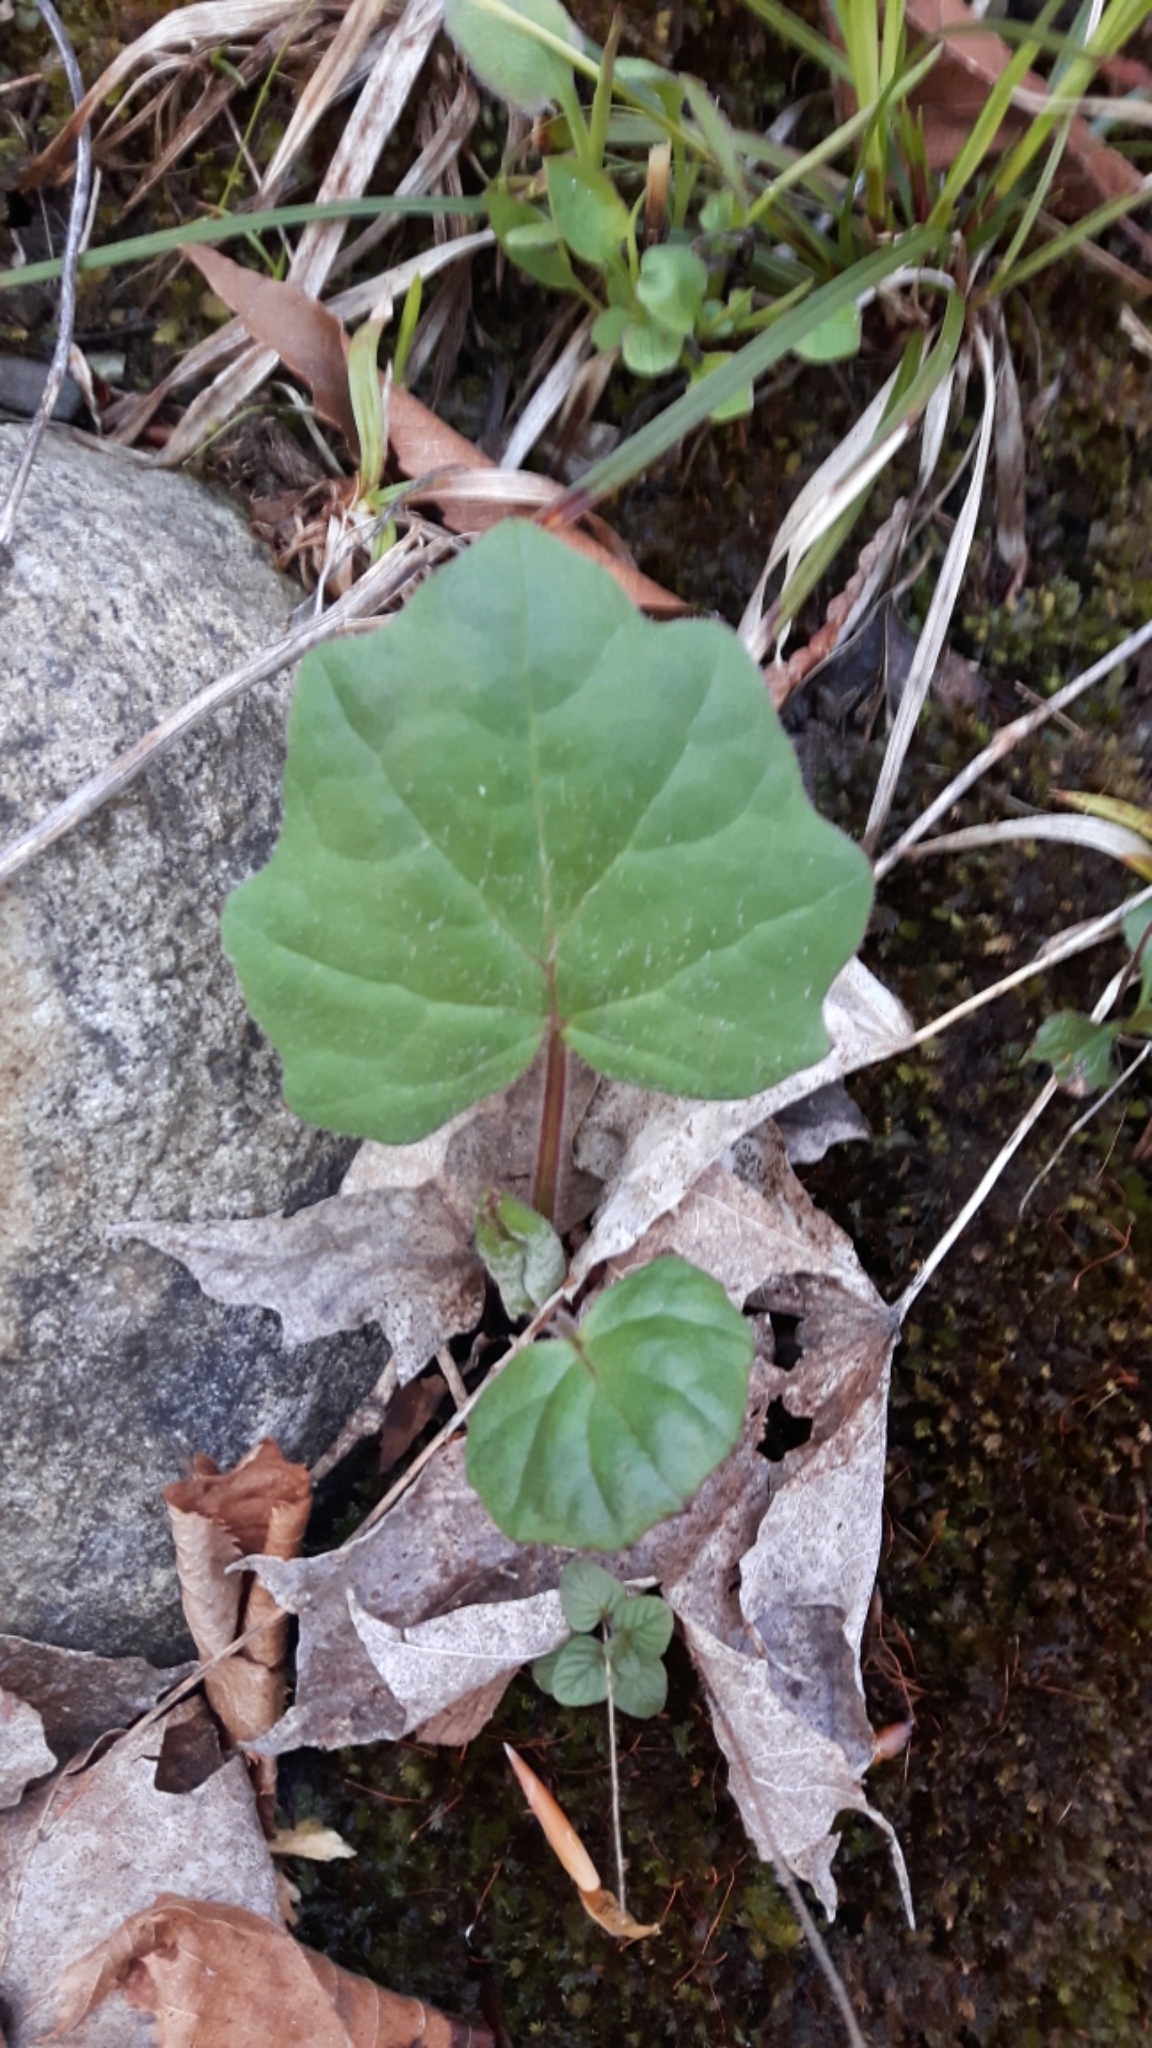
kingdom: Plantae
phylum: Tracheophyta
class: Magnoliopsida
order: Asterales
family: Asteraceae
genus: Tussilago
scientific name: Tussilago farfara
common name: Coltsfoot
